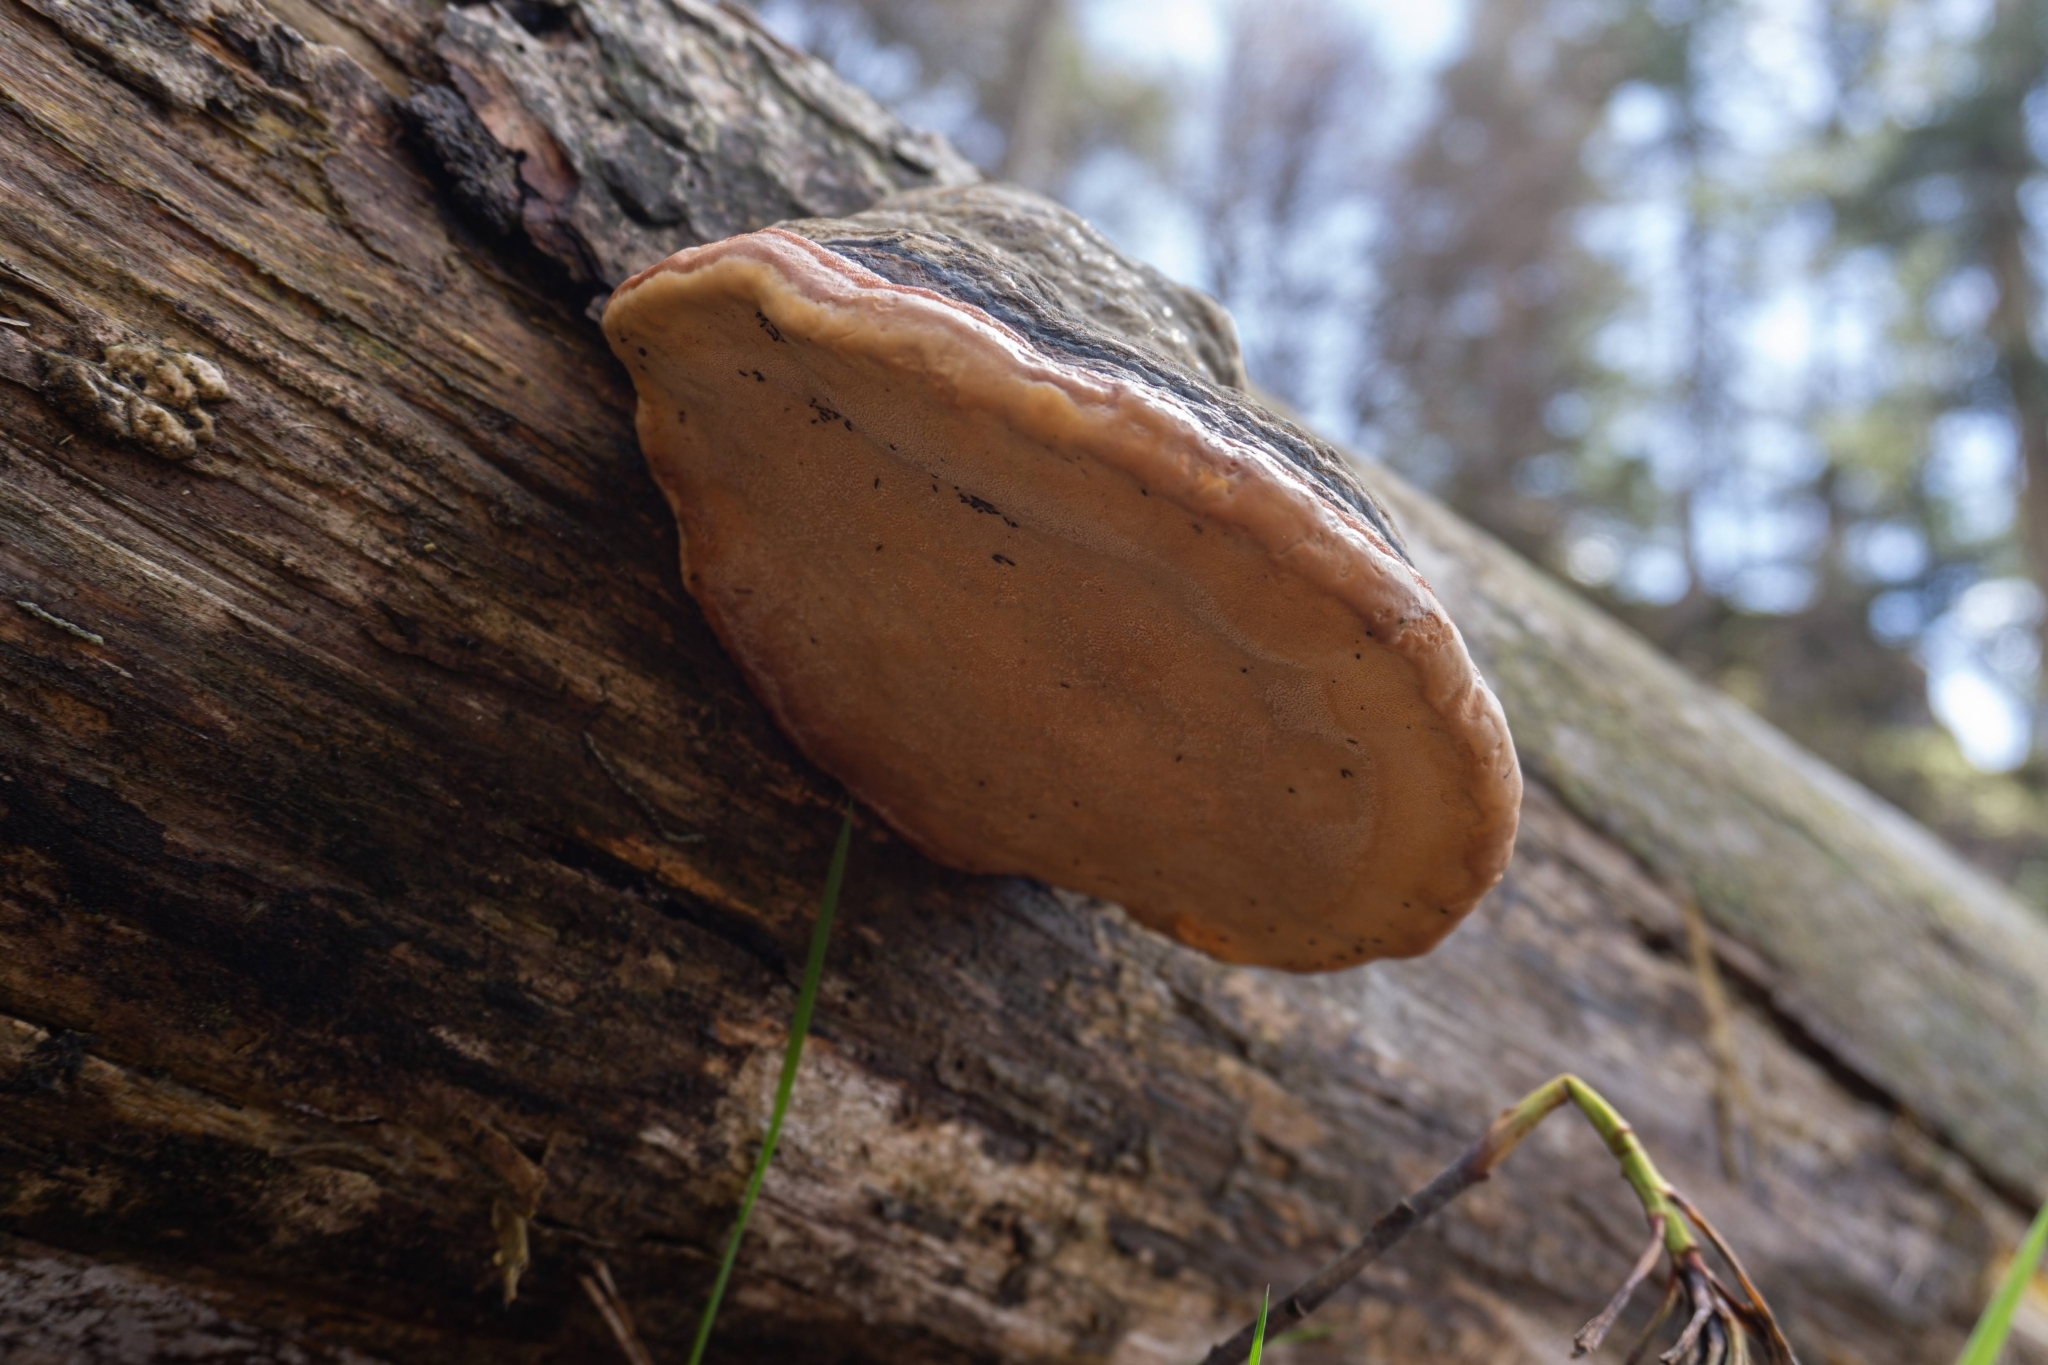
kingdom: Fungi
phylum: Basidiomycota
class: Agaricomycetes
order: Polyporales
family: Fomitopsidaceae
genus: Fomitopsis
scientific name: Fomitopsis pinicola
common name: Red-belted bracket
